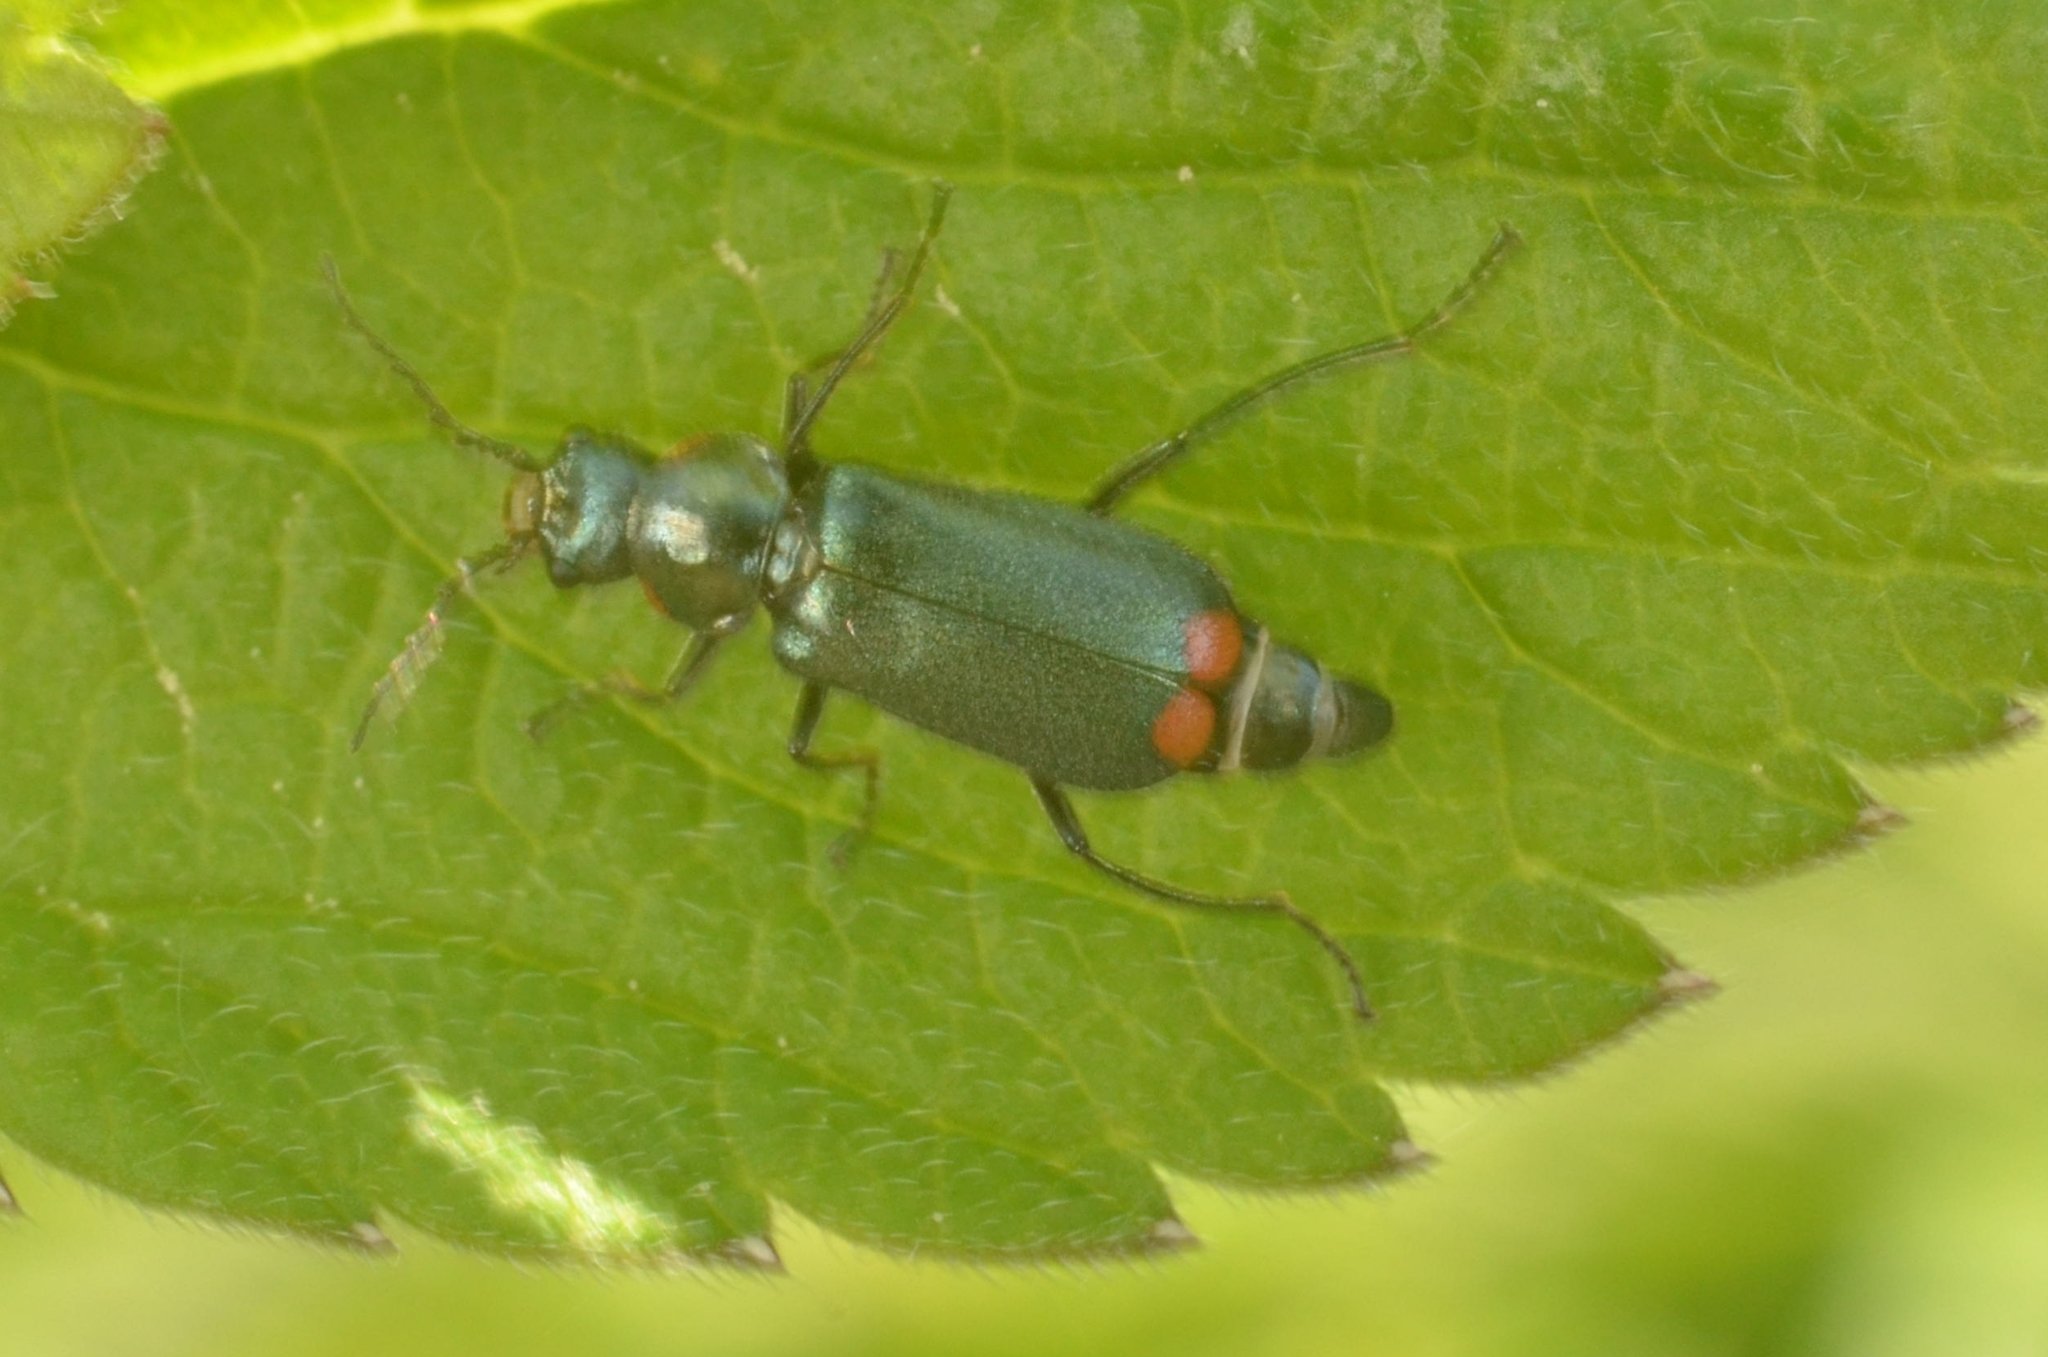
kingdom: Animalia
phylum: Arthropoda
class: Insecta
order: Coleoptera
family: Melyridae
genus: Malachius
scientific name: Malachius bipustulatus
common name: Malachite beetle
